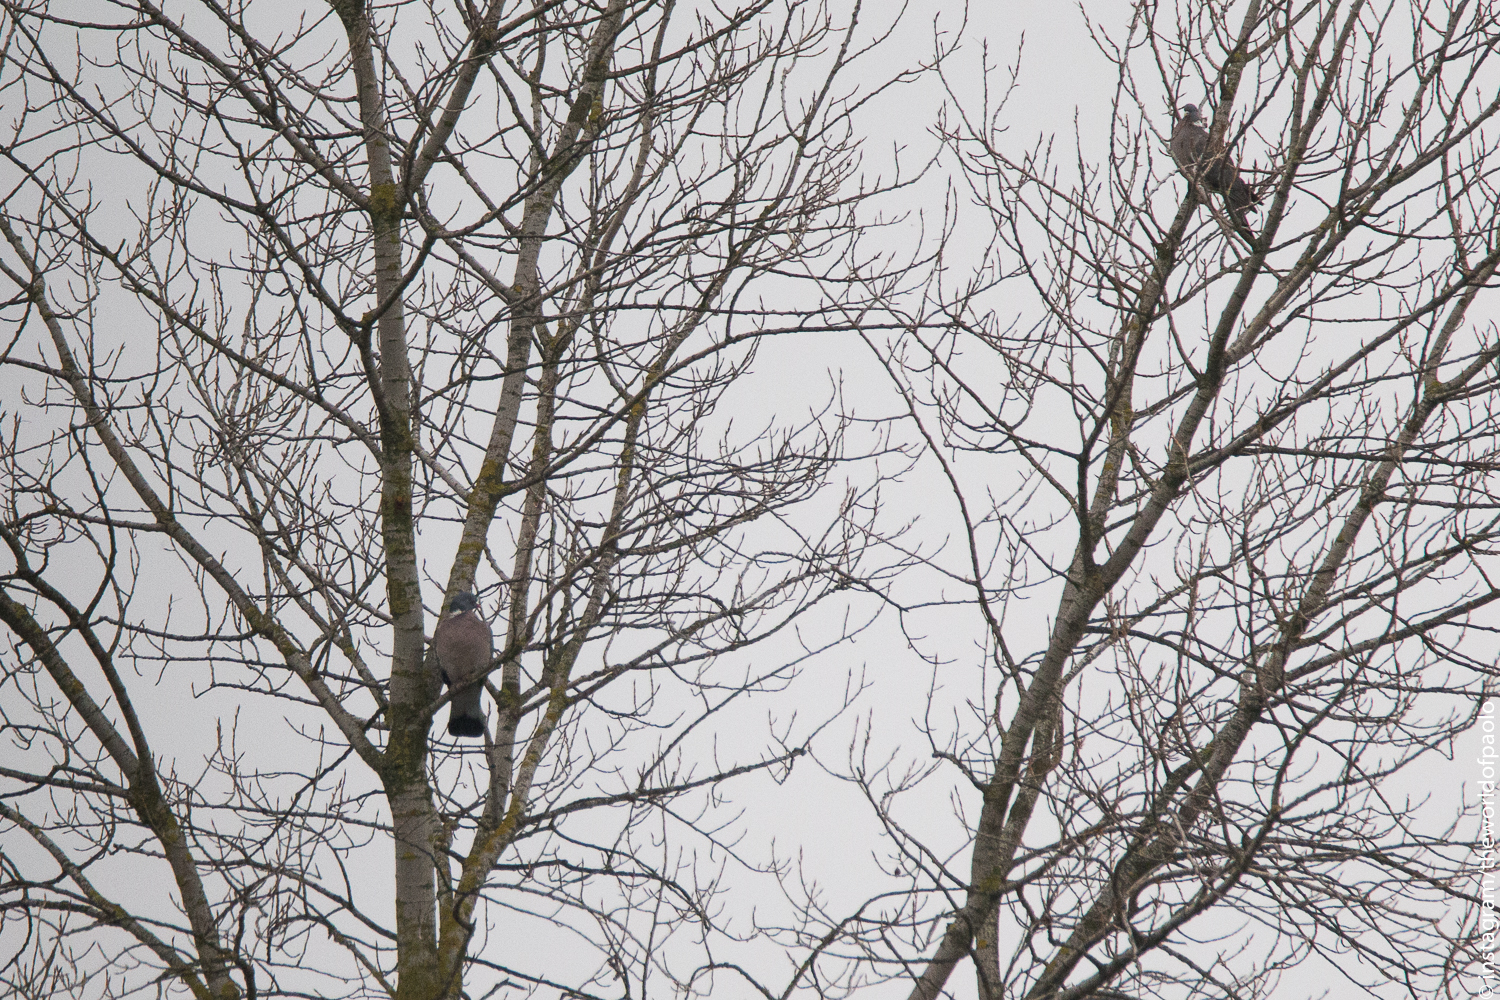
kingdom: Animalia
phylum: Chordata
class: Aves
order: Columbiformes
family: Columbidae
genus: Columba
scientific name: Columba palumbus
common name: Common wood pigeon
